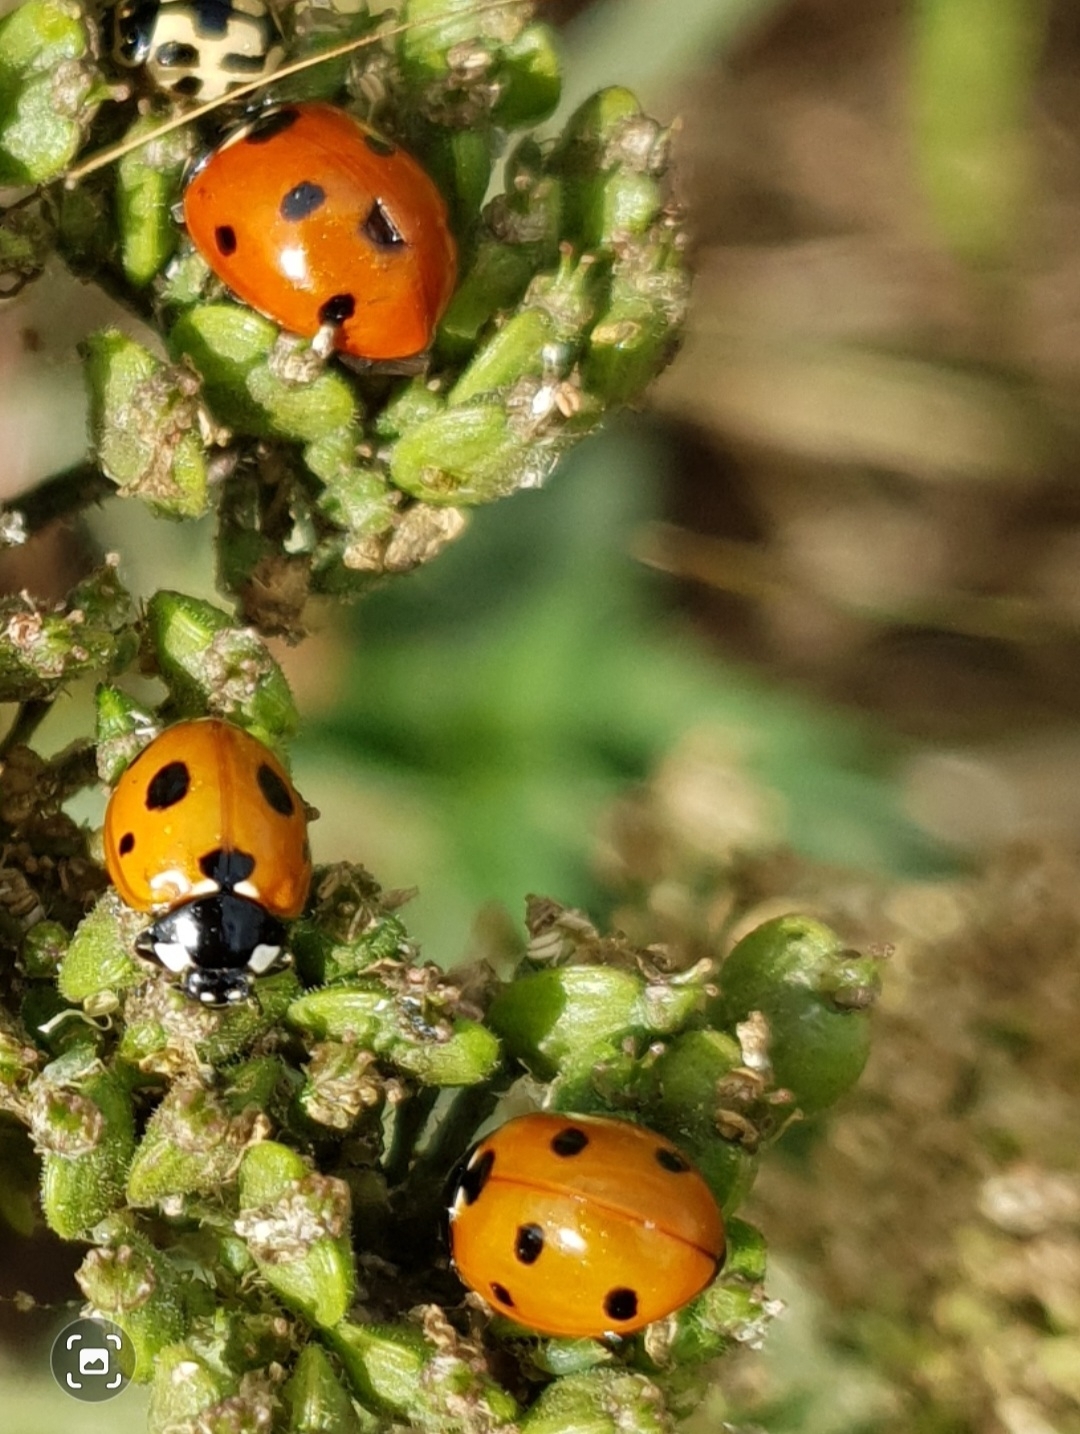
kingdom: Animalia
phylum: Arthropoda
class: Insecta
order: Coleoptera
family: Coccinellidae
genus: Coccinella
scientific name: Coccinella septempunctata
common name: Sevenspotted lady beetle
